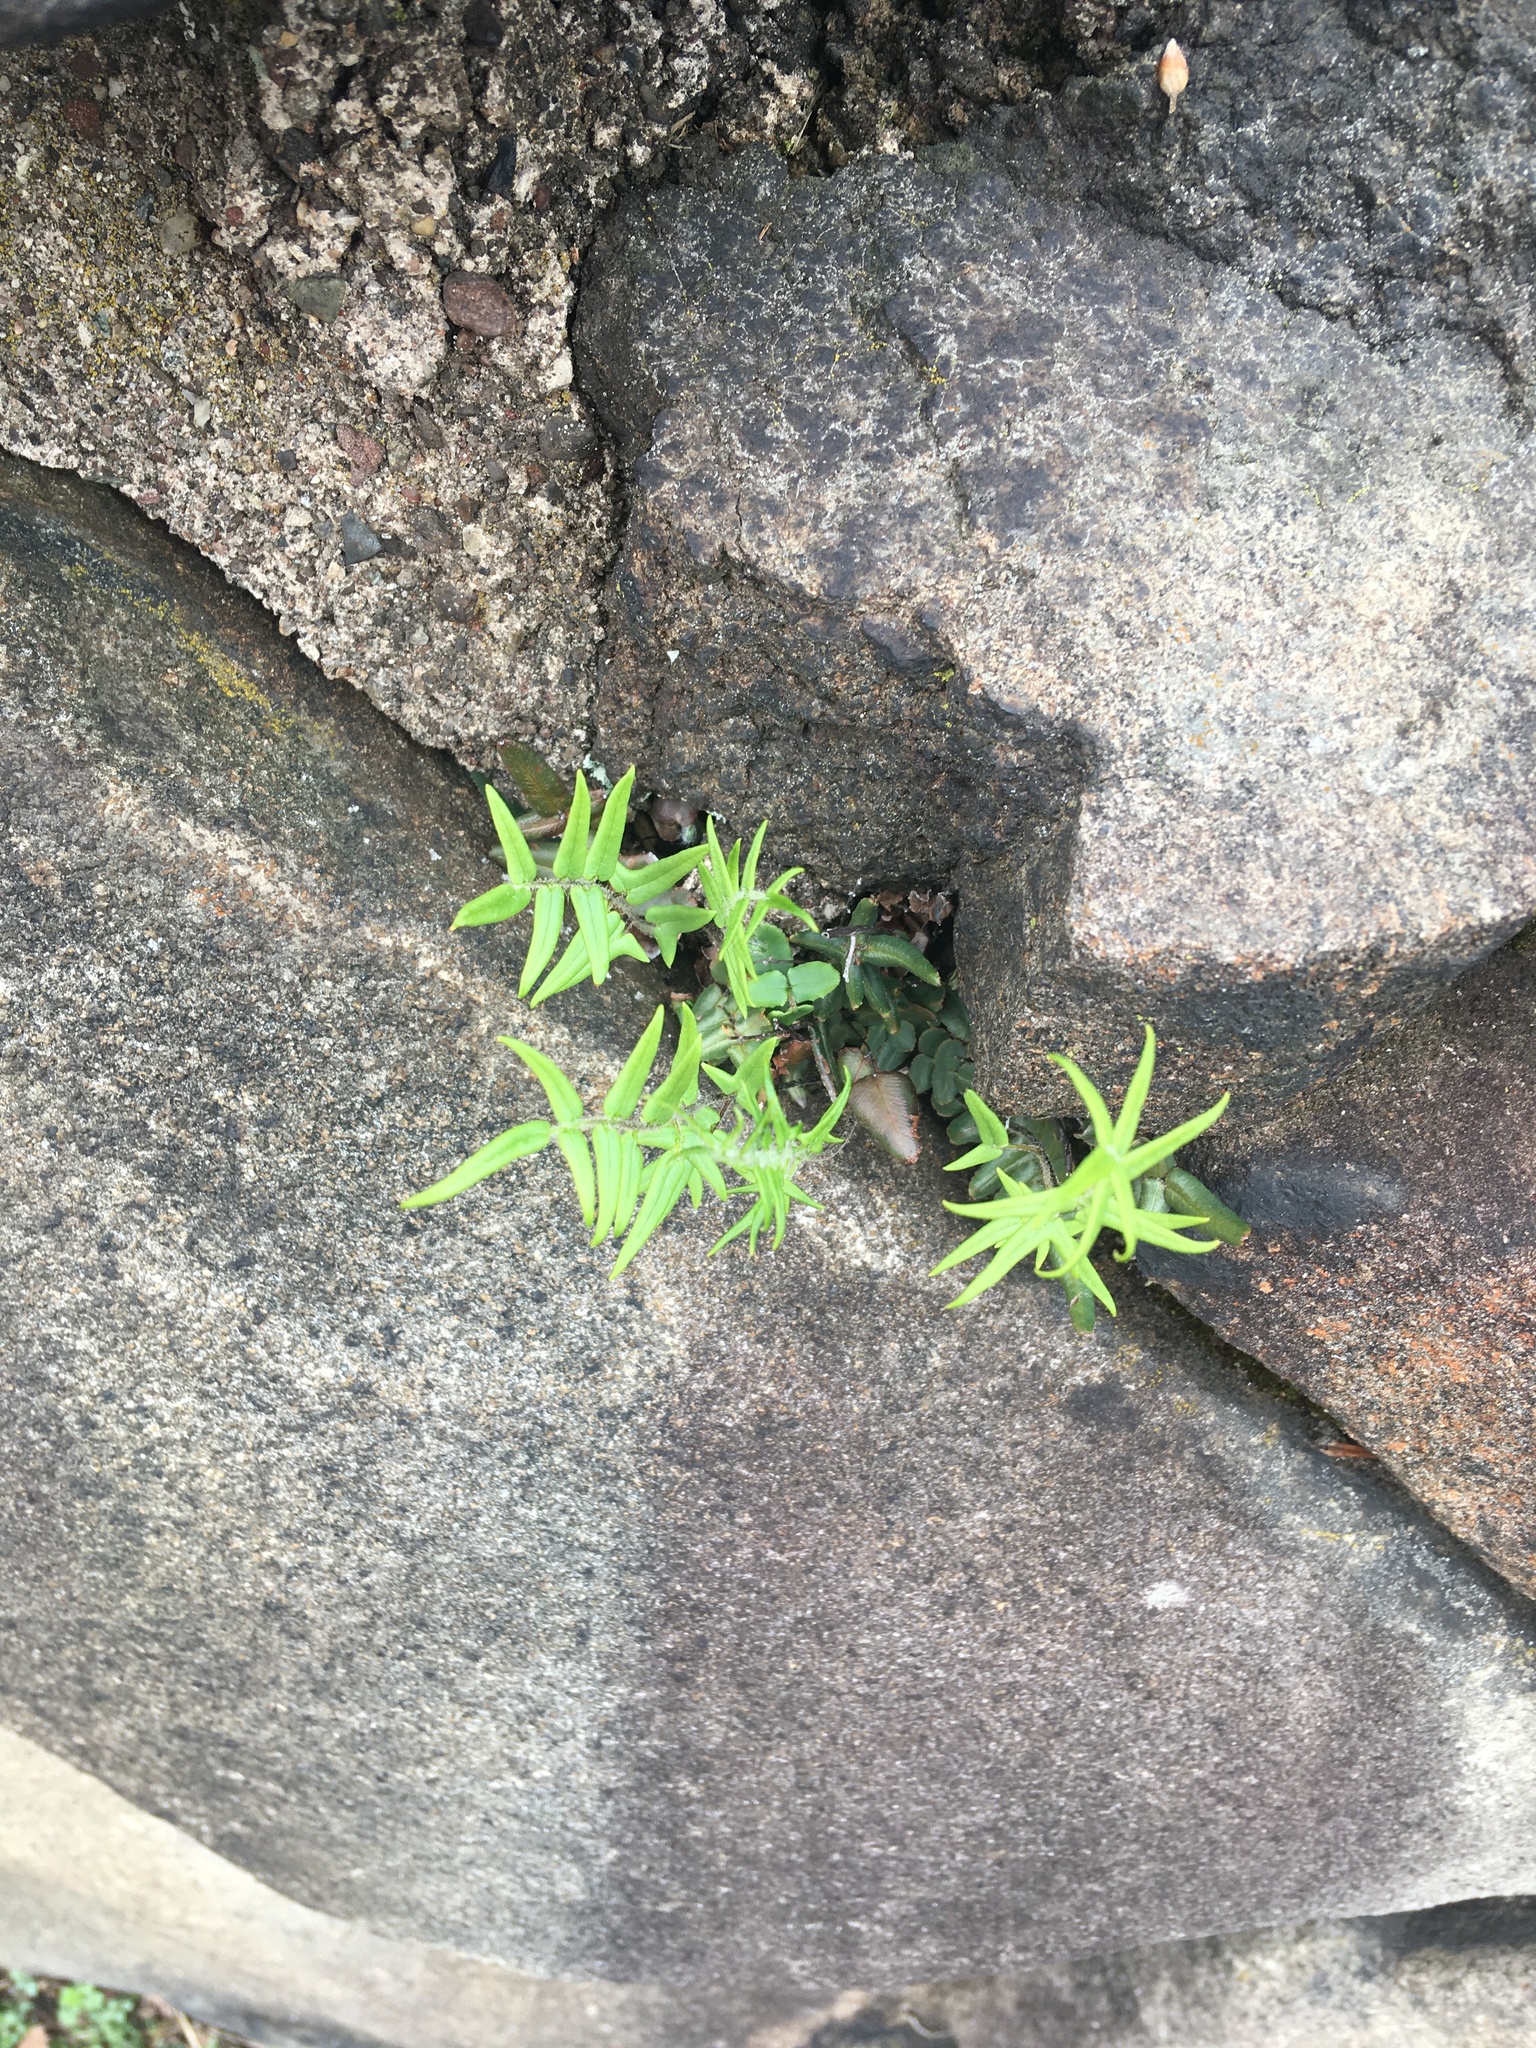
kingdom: Plantae
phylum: Tracheophyta
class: Polypodiopsida
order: Polypodiales
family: Pteridaceae
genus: Pellaea
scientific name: Pellaea atropurpurea
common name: Hairy cliffbrake
